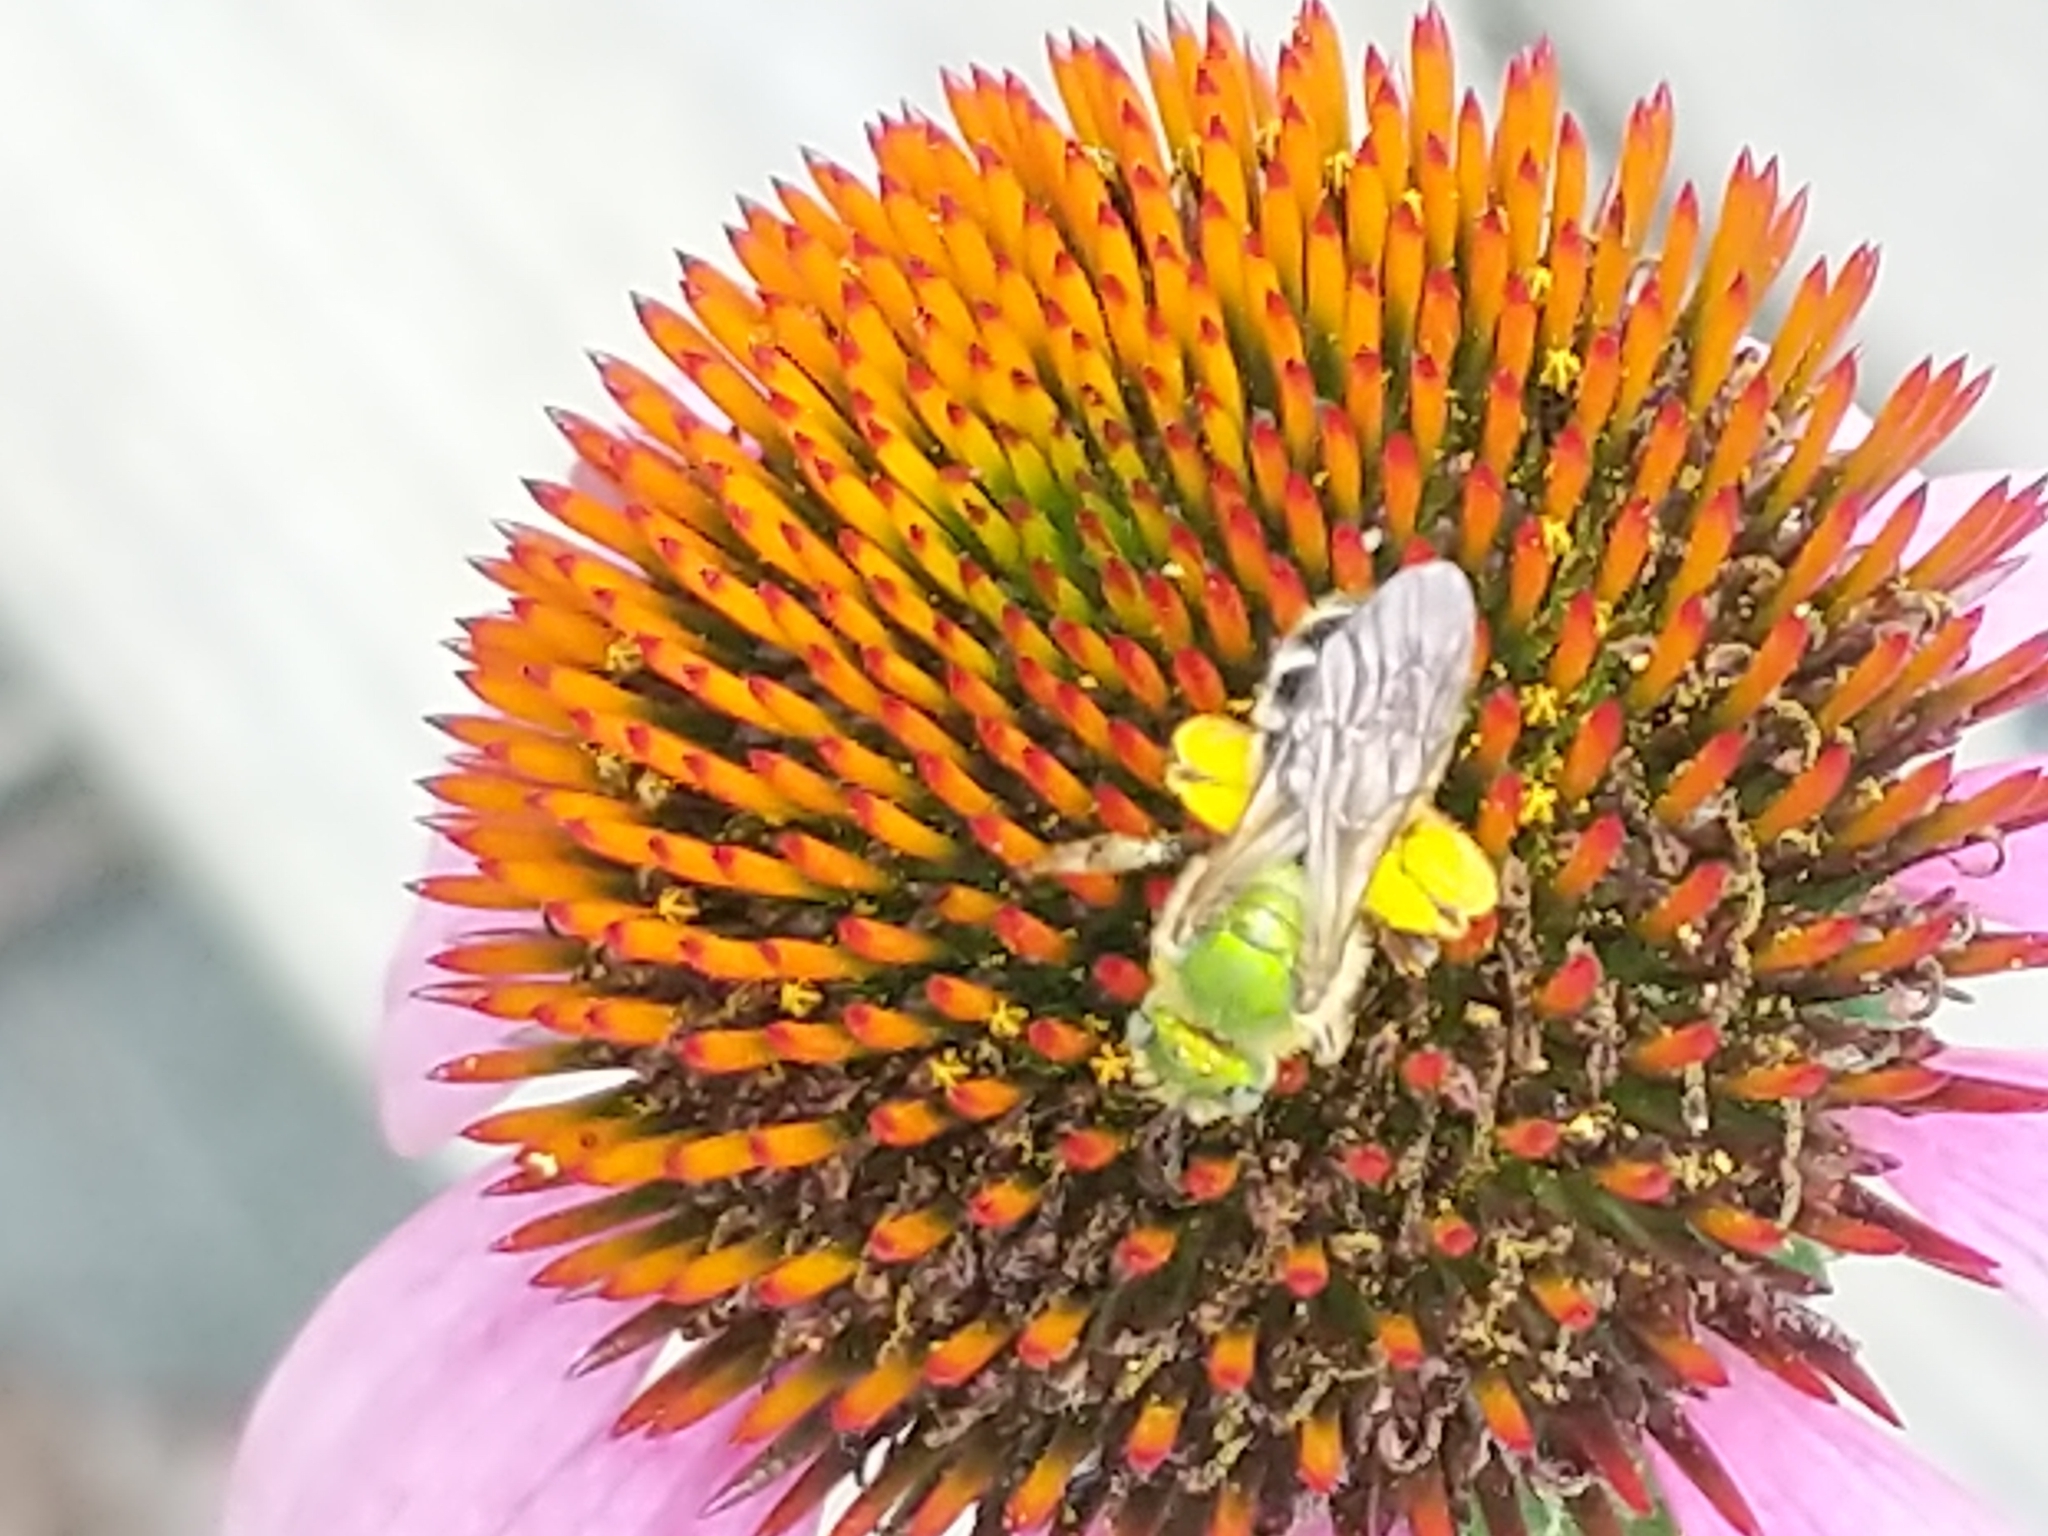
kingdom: Animalia
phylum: Arthropoda
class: Insecta
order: Hymenoptera
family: Halictidae
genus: Agapostemon
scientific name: Agapostemon virescens
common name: Bicolored striped sweat bee
